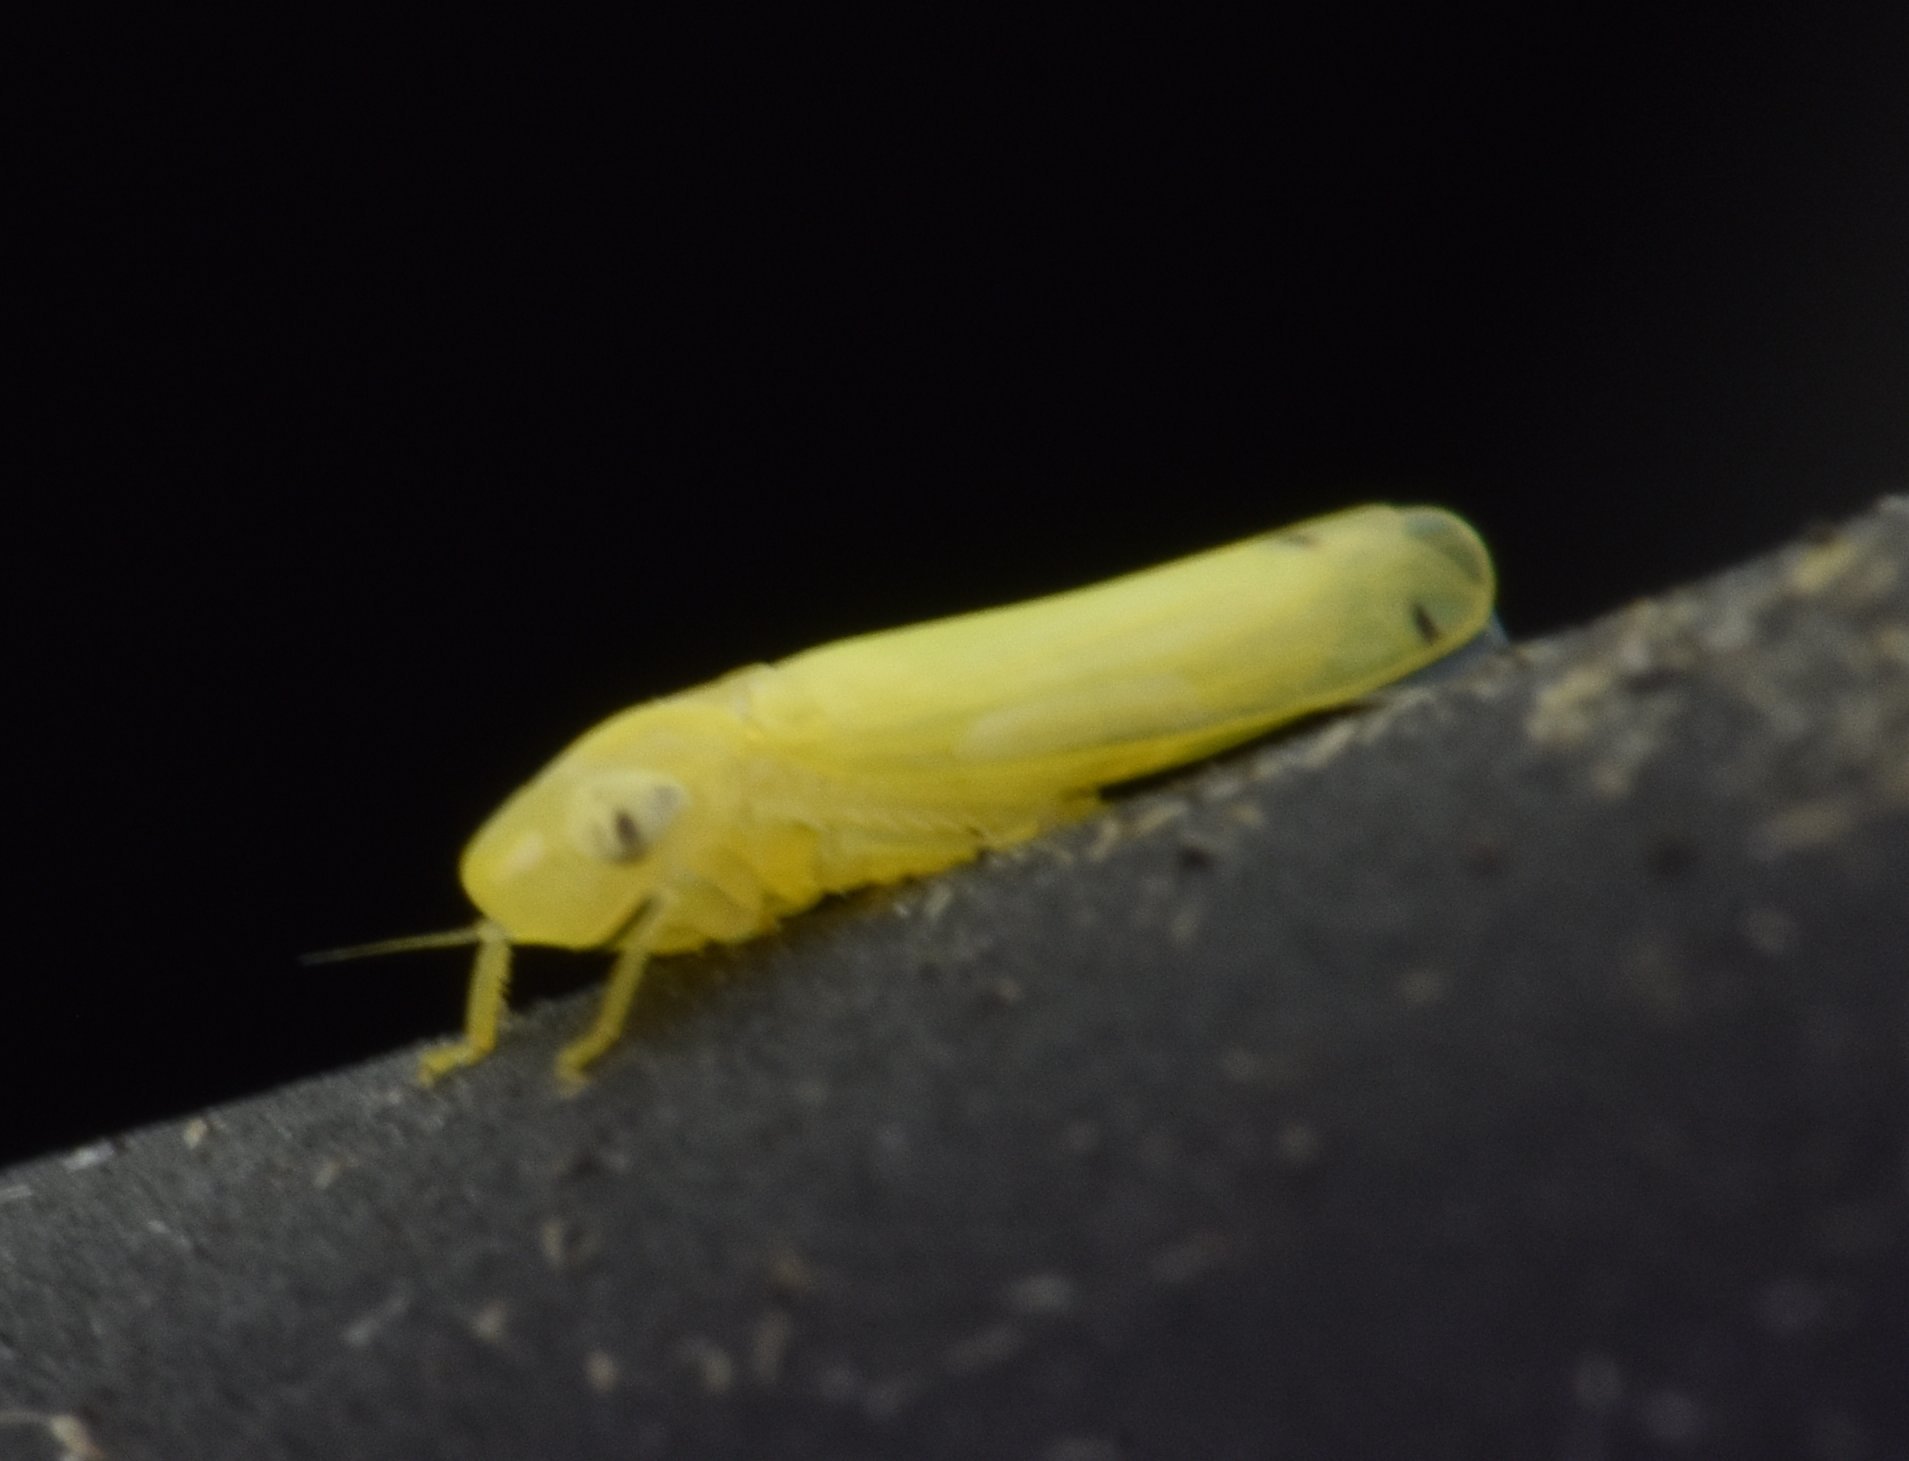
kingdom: Animalia
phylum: Arthropoda
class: Insecta
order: Hemiptera
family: Cicadellidae
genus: Dikrella
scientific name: Dikrella cedrelae
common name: Leafhopper
